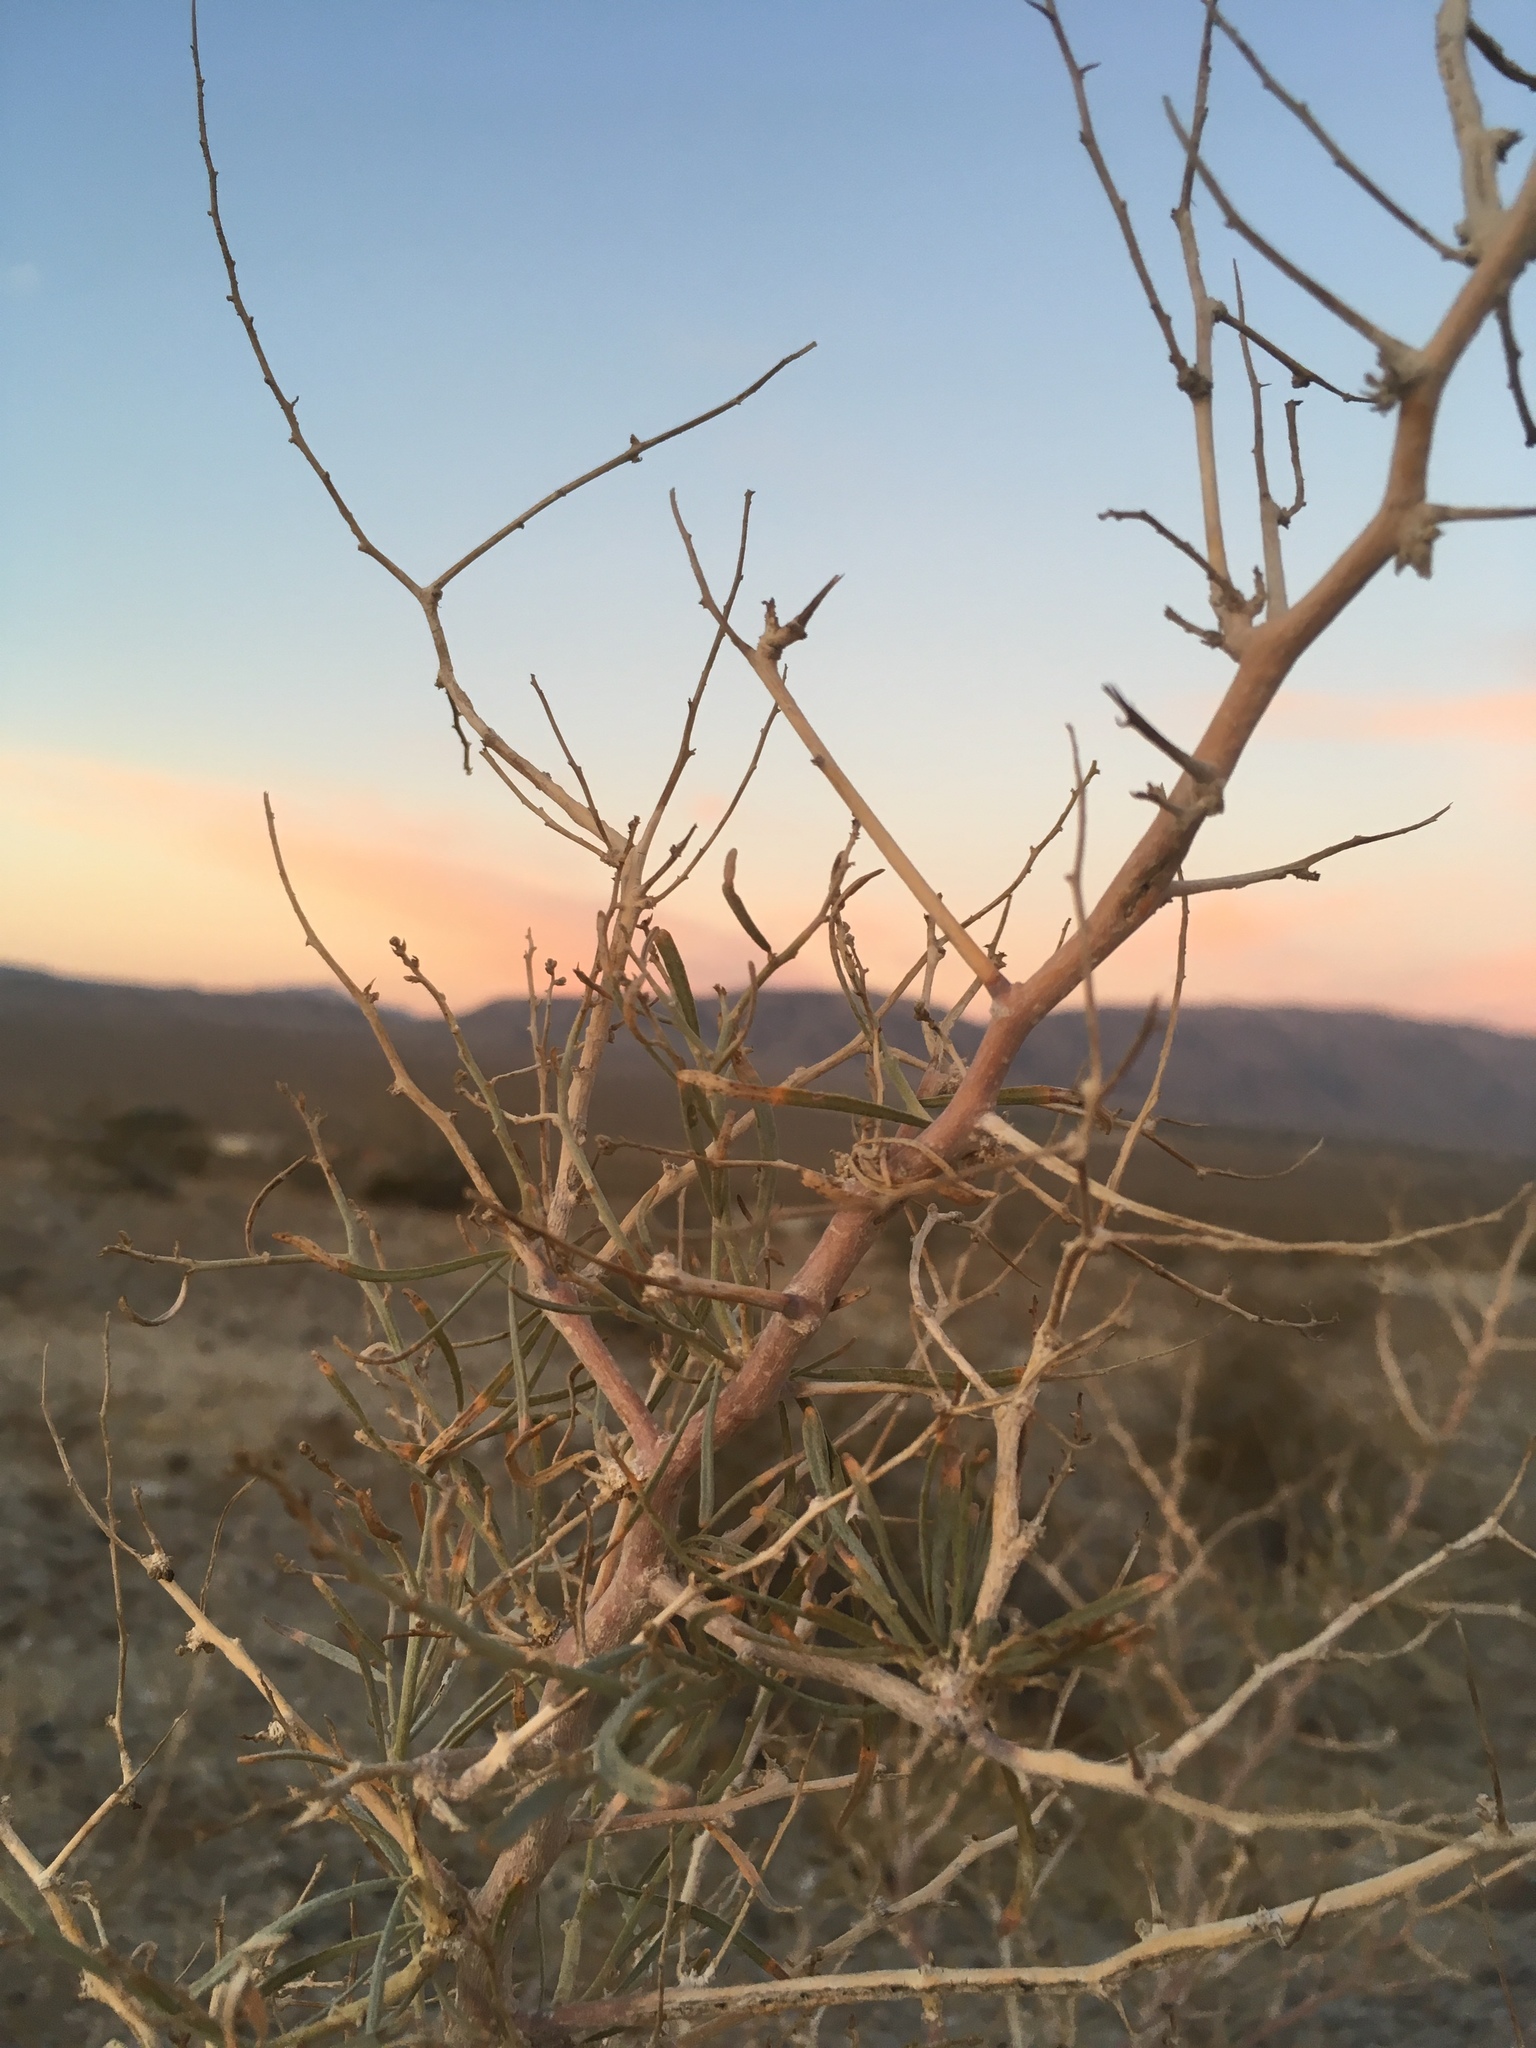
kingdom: Plantae
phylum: Tracheophyta
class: Magnoliopsida
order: Fabales
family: Fabaceae
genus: Psorothamnus
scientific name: Psorothamnus schottii
